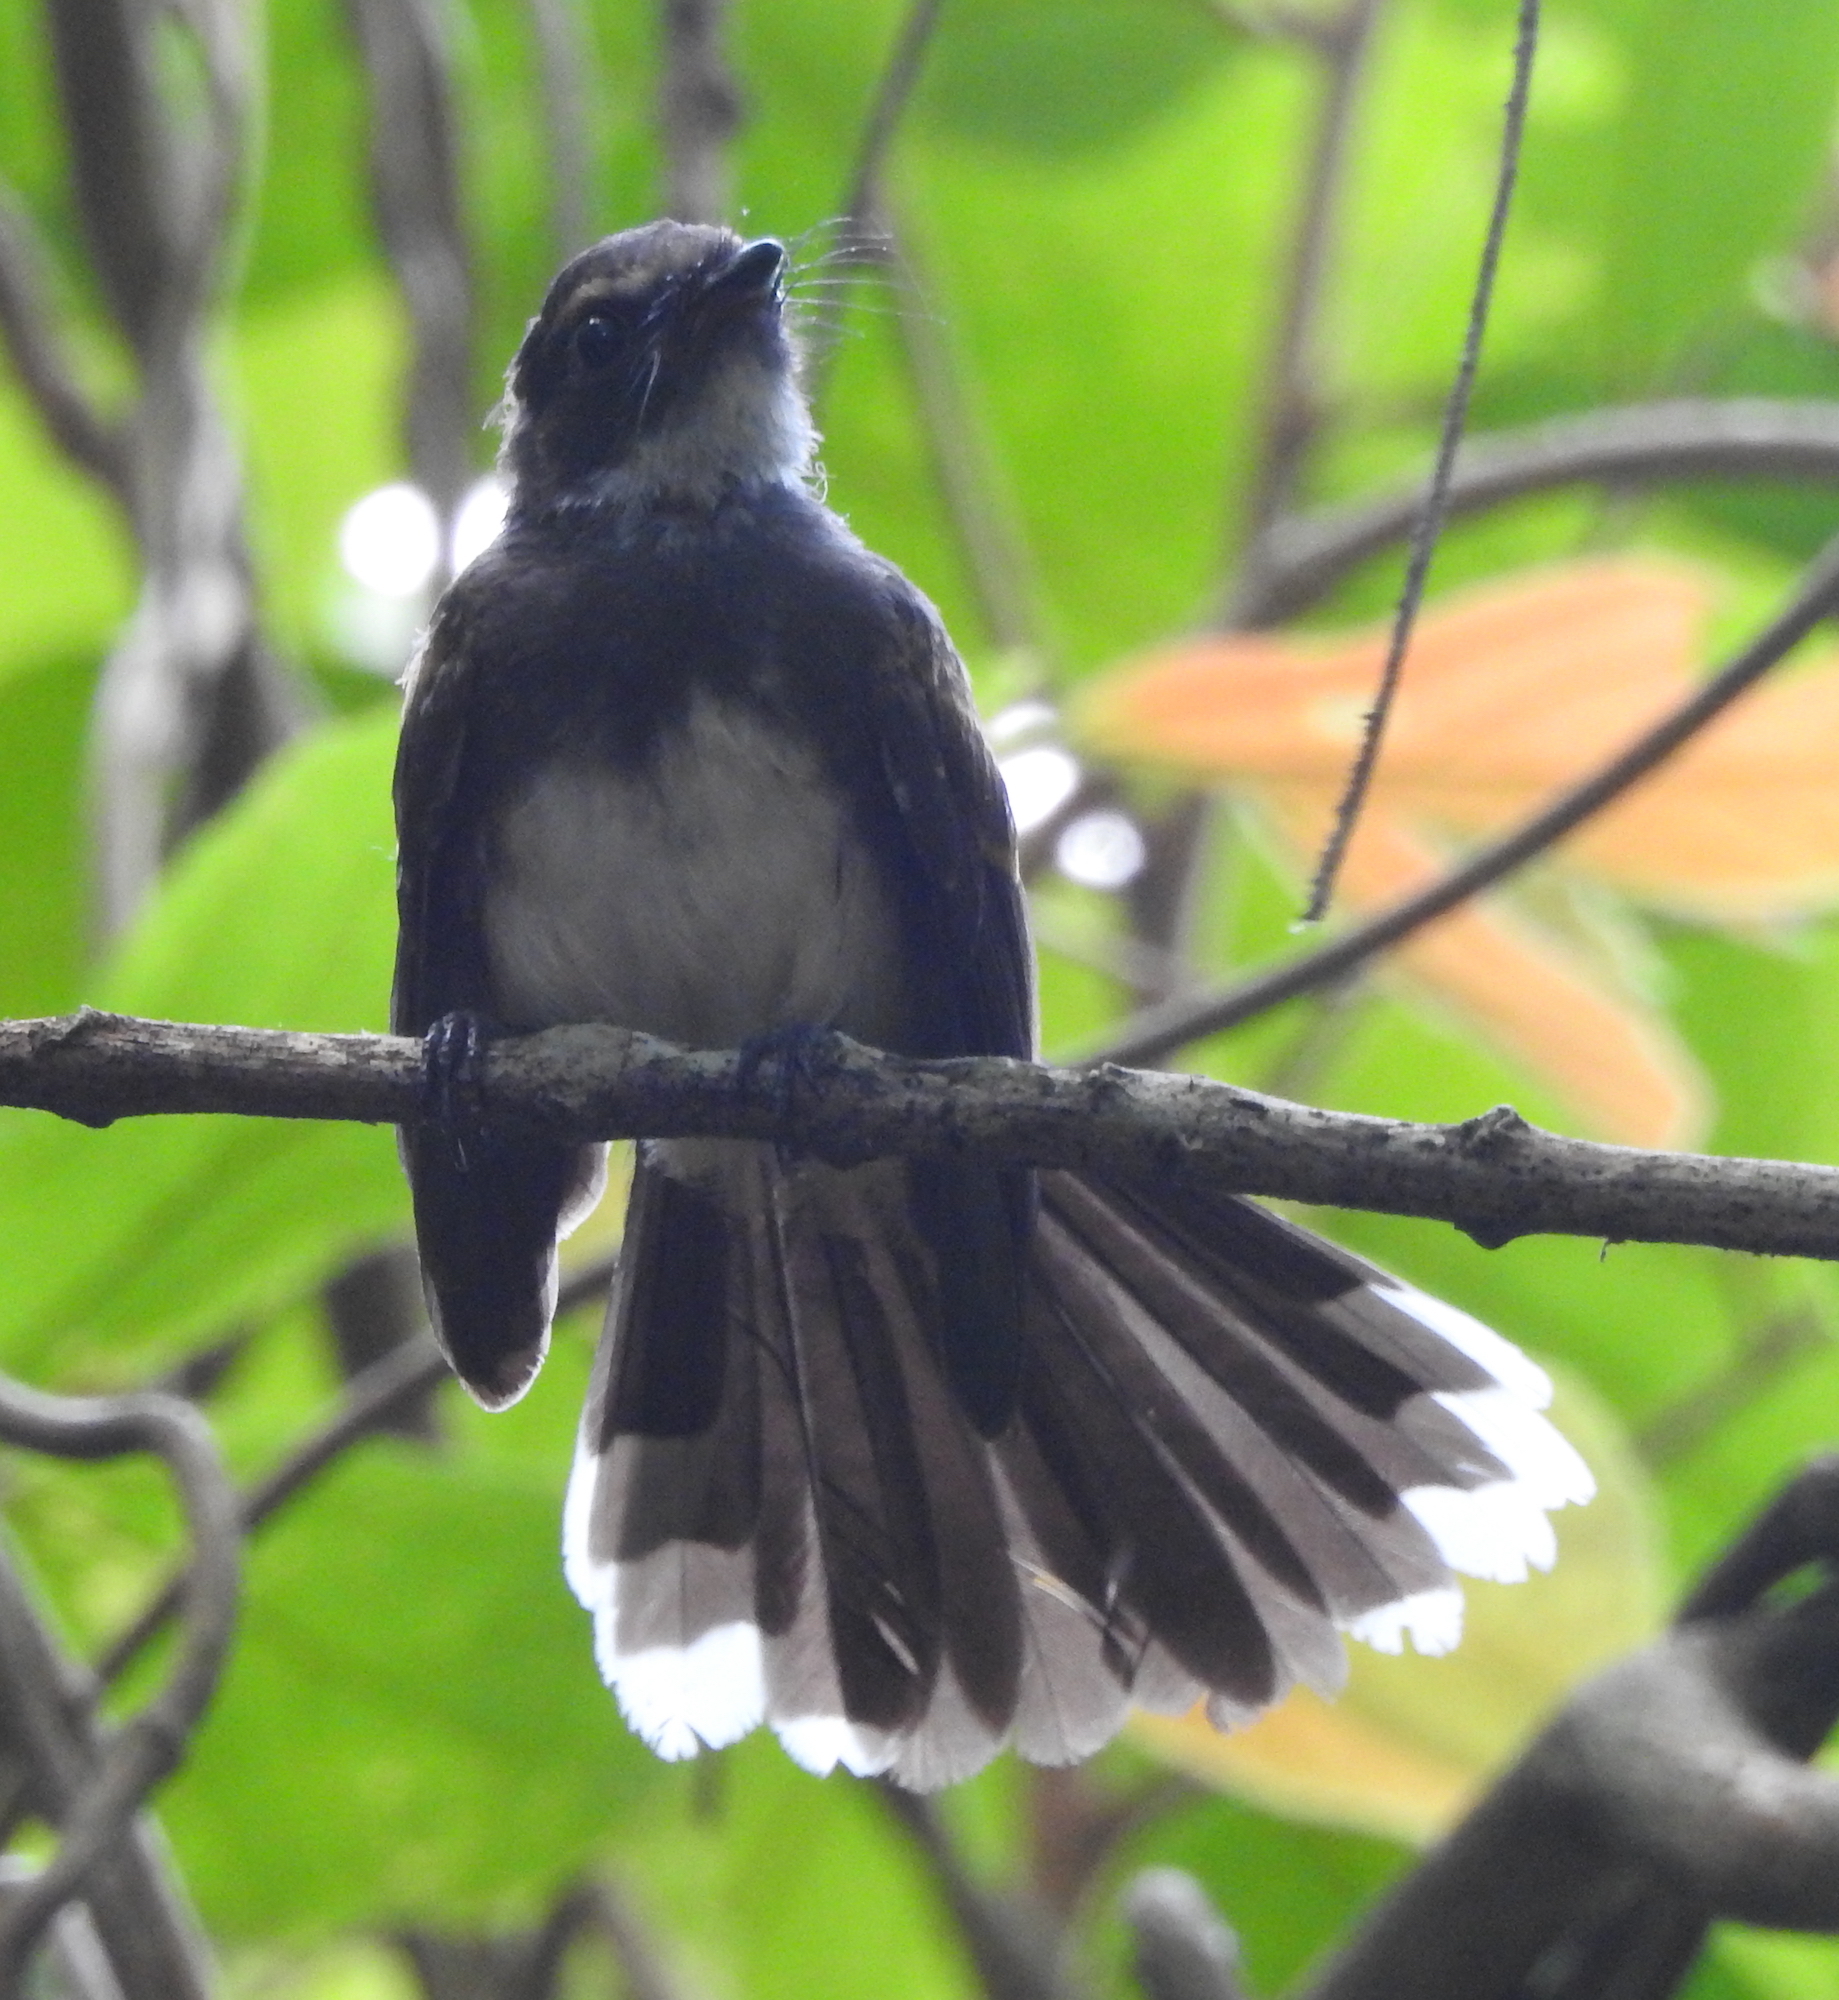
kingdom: Animalia
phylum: Chordata
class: Aves
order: Passeriformes
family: Rhipiduridae
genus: Rhipidura
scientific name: Rhipidura javanica
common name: Pied fantail
